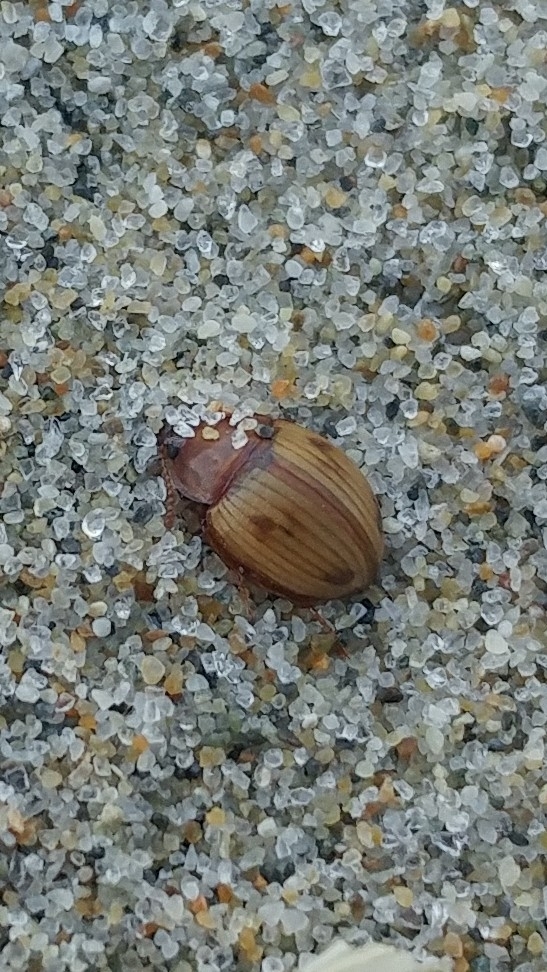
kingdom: Animalia
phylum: Arthropoda
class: Insecta
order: Coleoptera
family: Tenebrionidae
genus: Phaleromela
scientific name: Phaleromela picta
